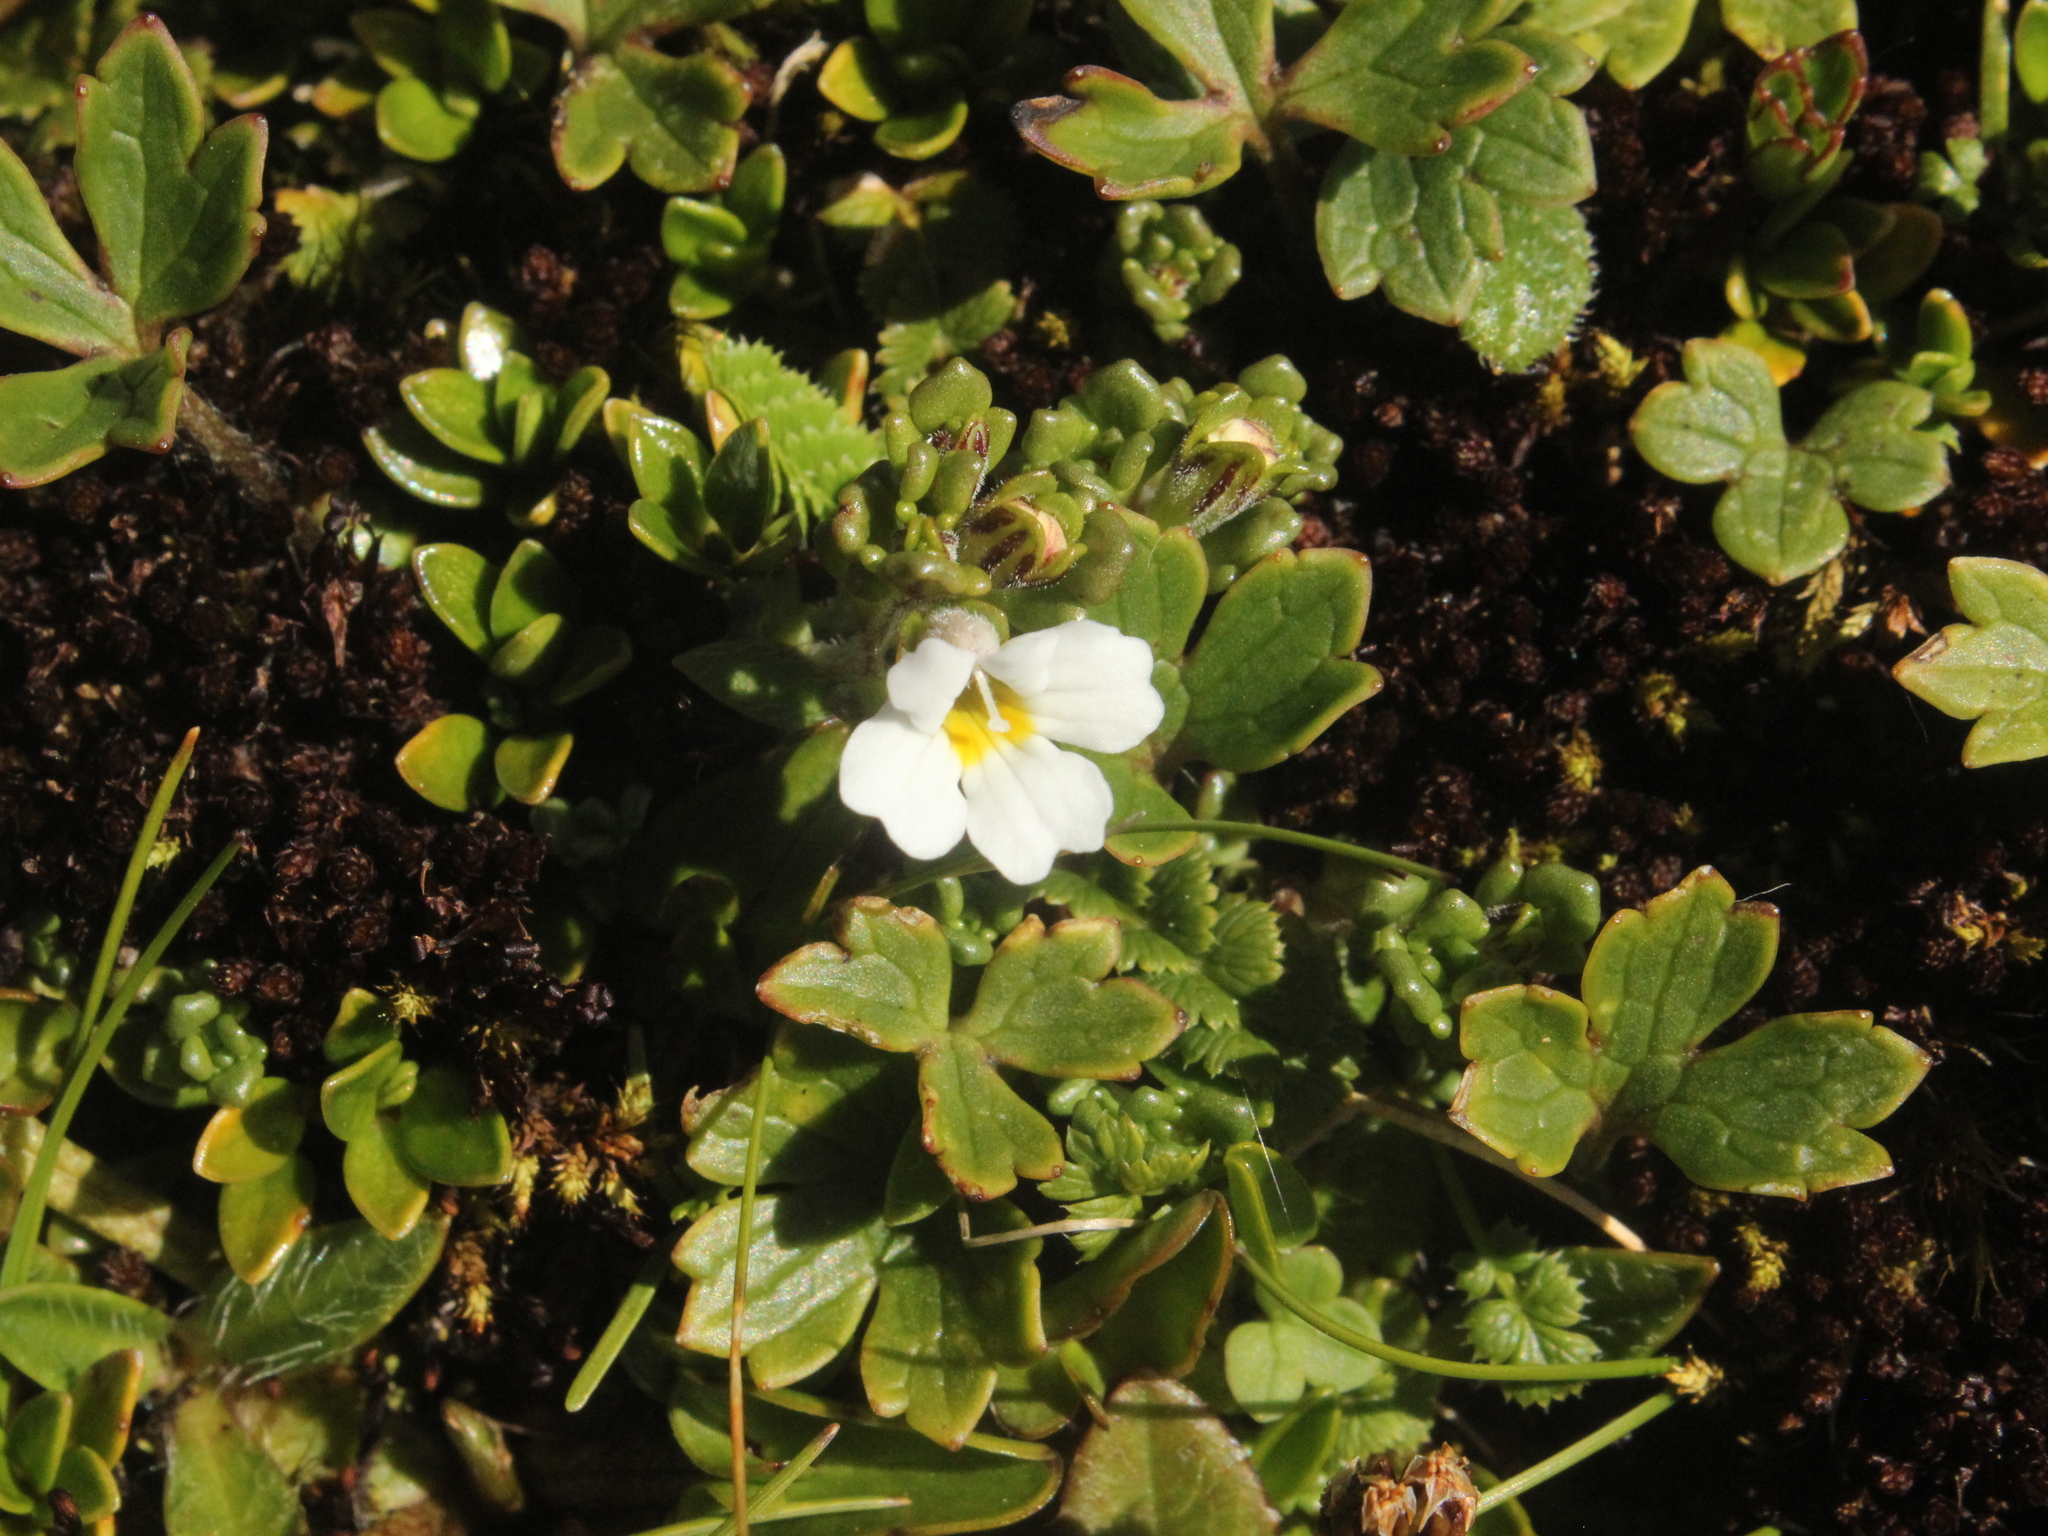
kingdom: Plantae
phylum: Tracheophyta
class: Magnoliopsida
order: Lamiales
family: Orobanchaceae
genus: Euphrasia
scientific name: Euphrasia revoluta
